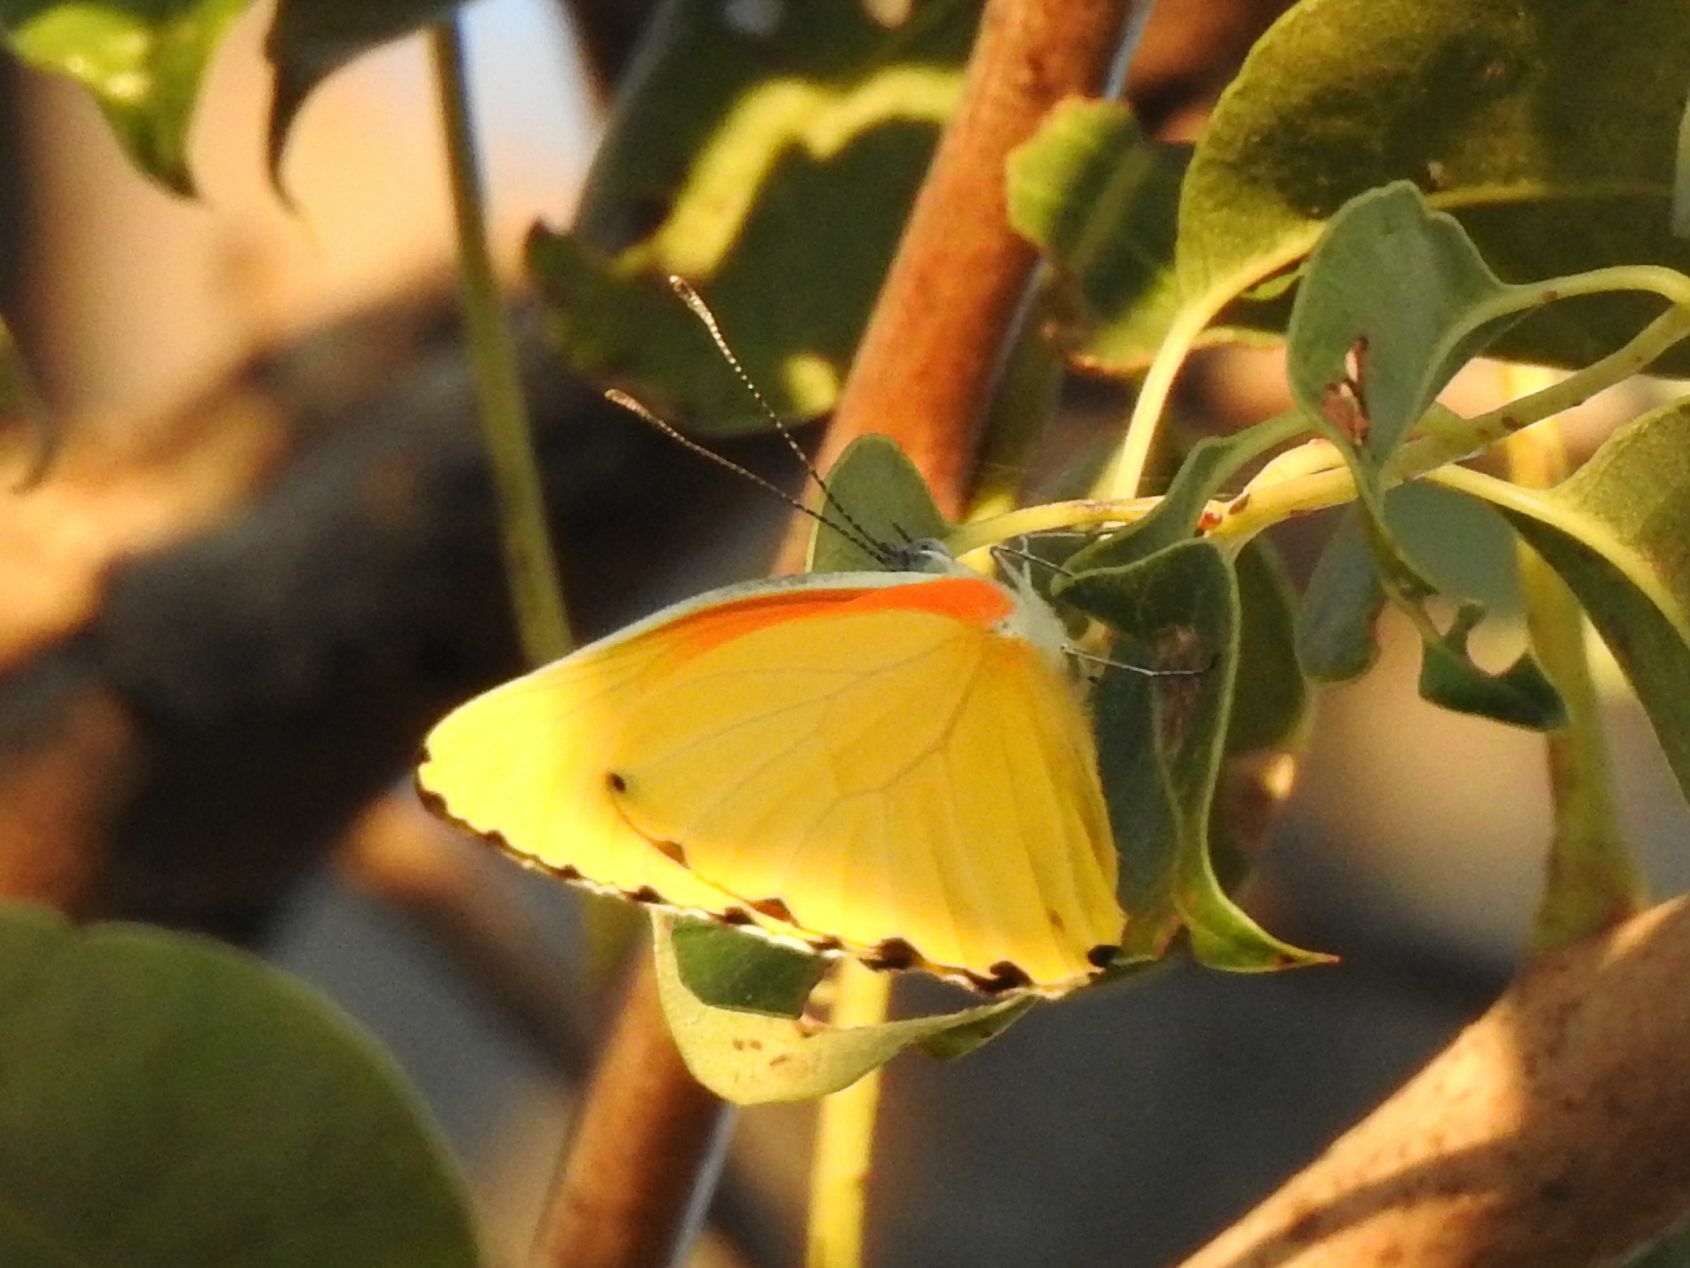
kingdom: Animalia
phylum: Arthropoda
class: Insecta
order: Lepidoptera
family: Pieridae
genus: Mylothris
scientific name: Mylothris agathina
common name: Eastern dotted border
